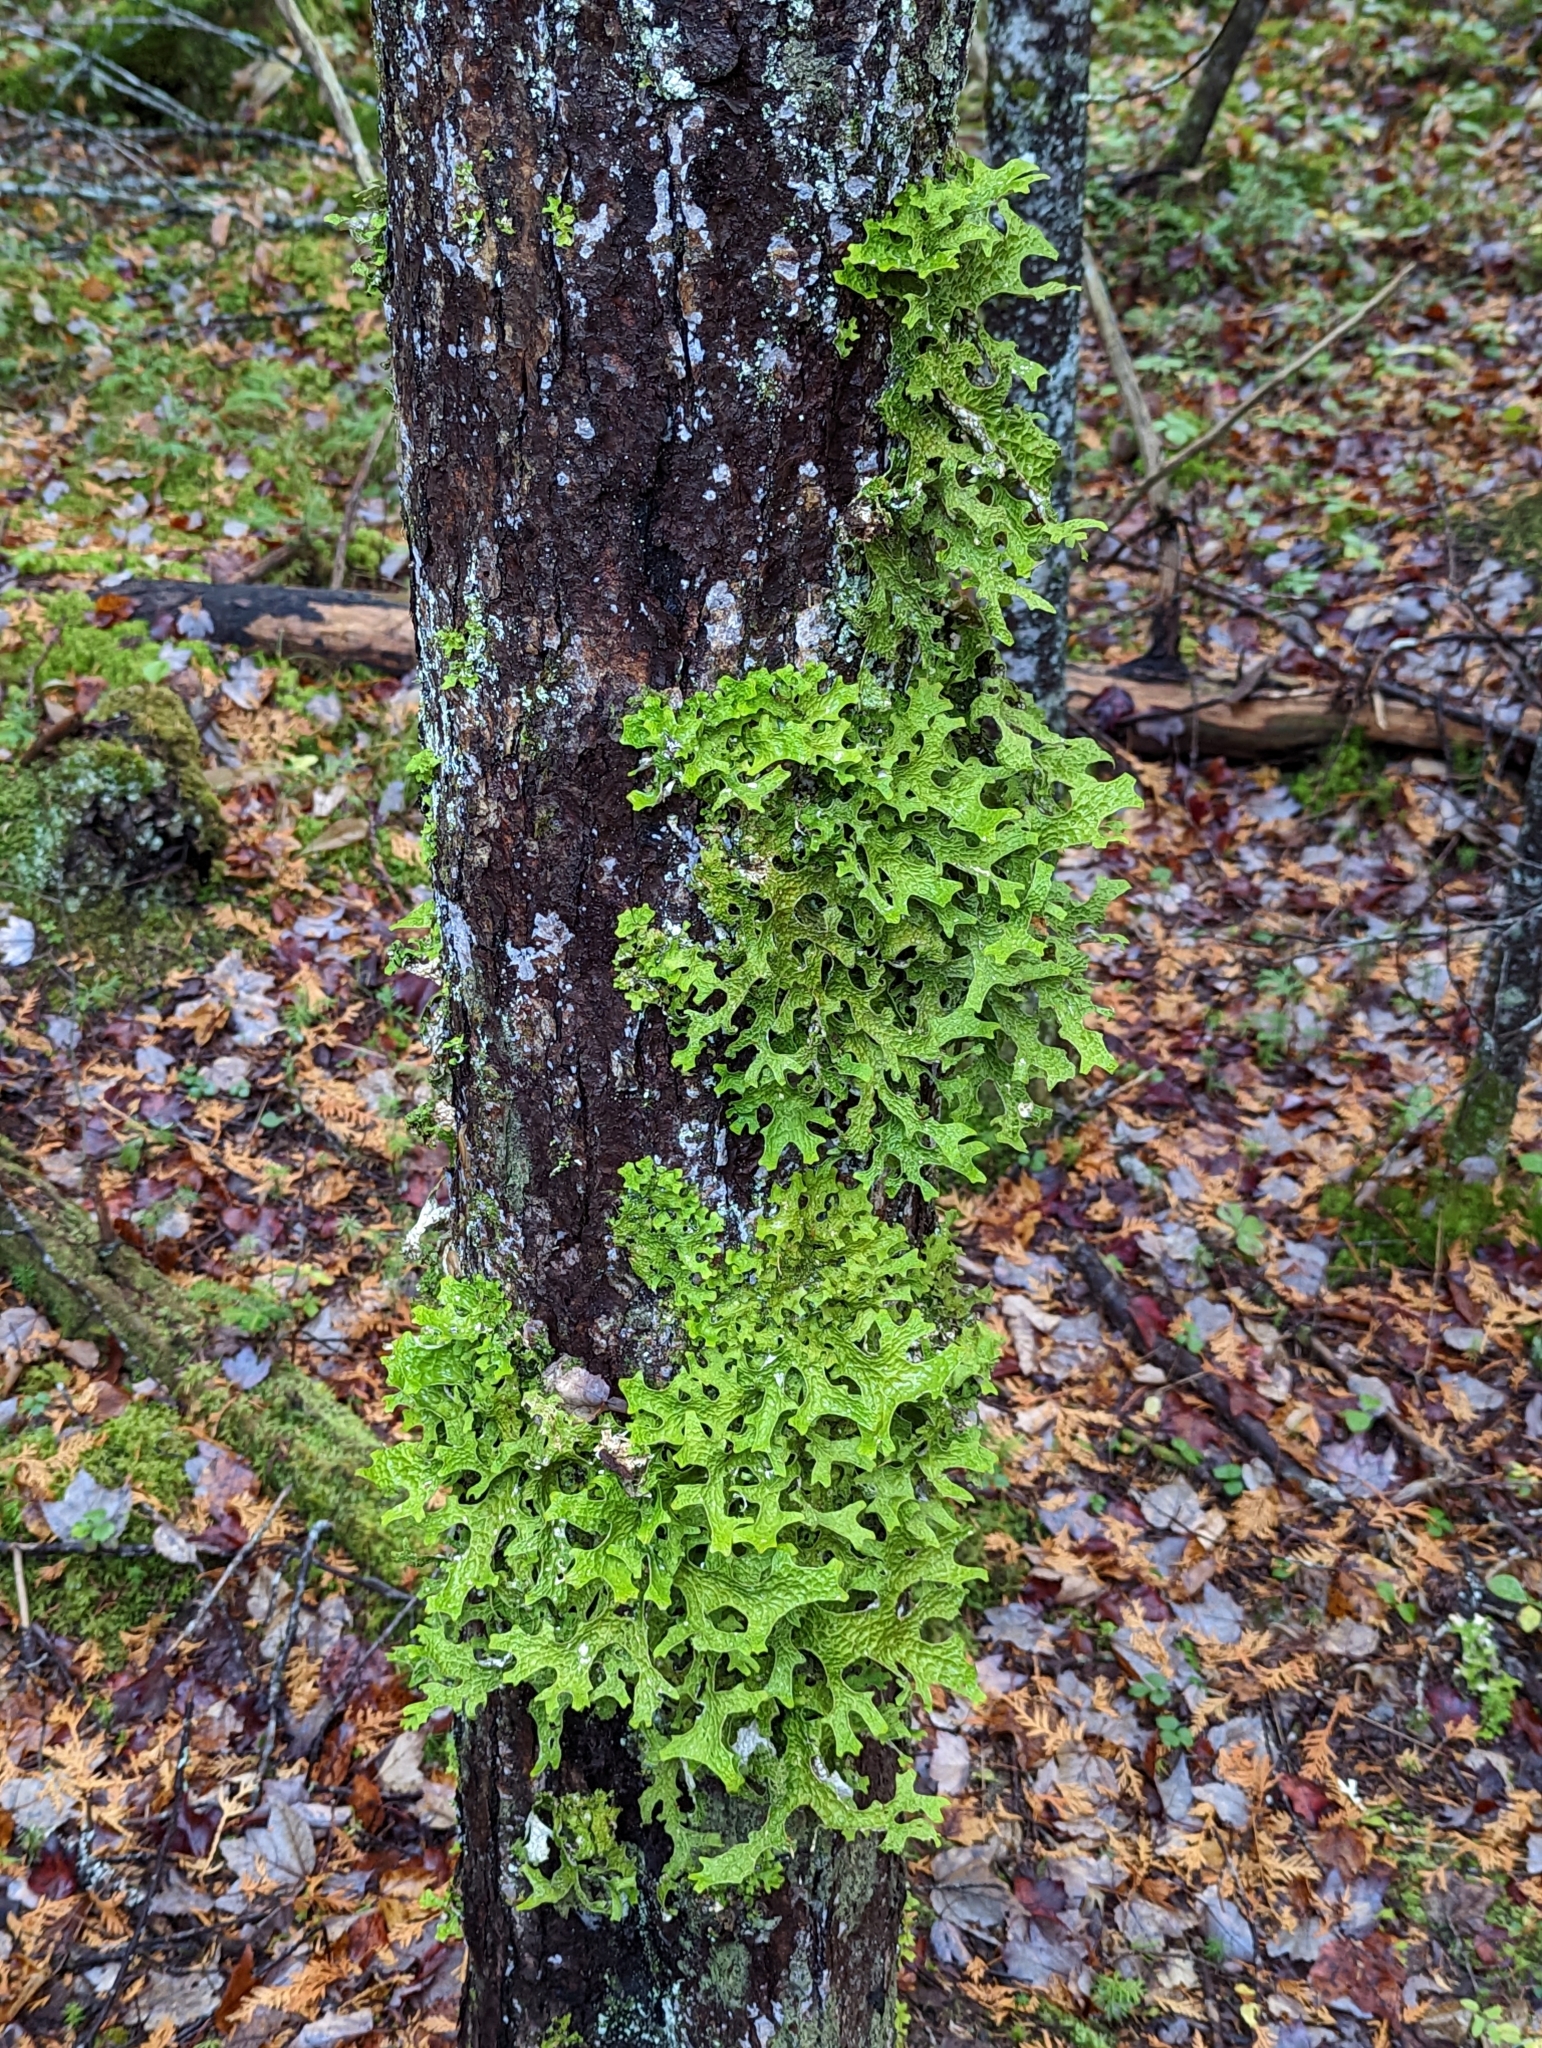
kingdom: Fungi
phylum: Ascomycota
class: Lecanoromycetes
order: Peltigerales
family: Lobariaceae
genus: Lobaria
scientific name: Lobaria pulmonaria
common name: Lungwort
